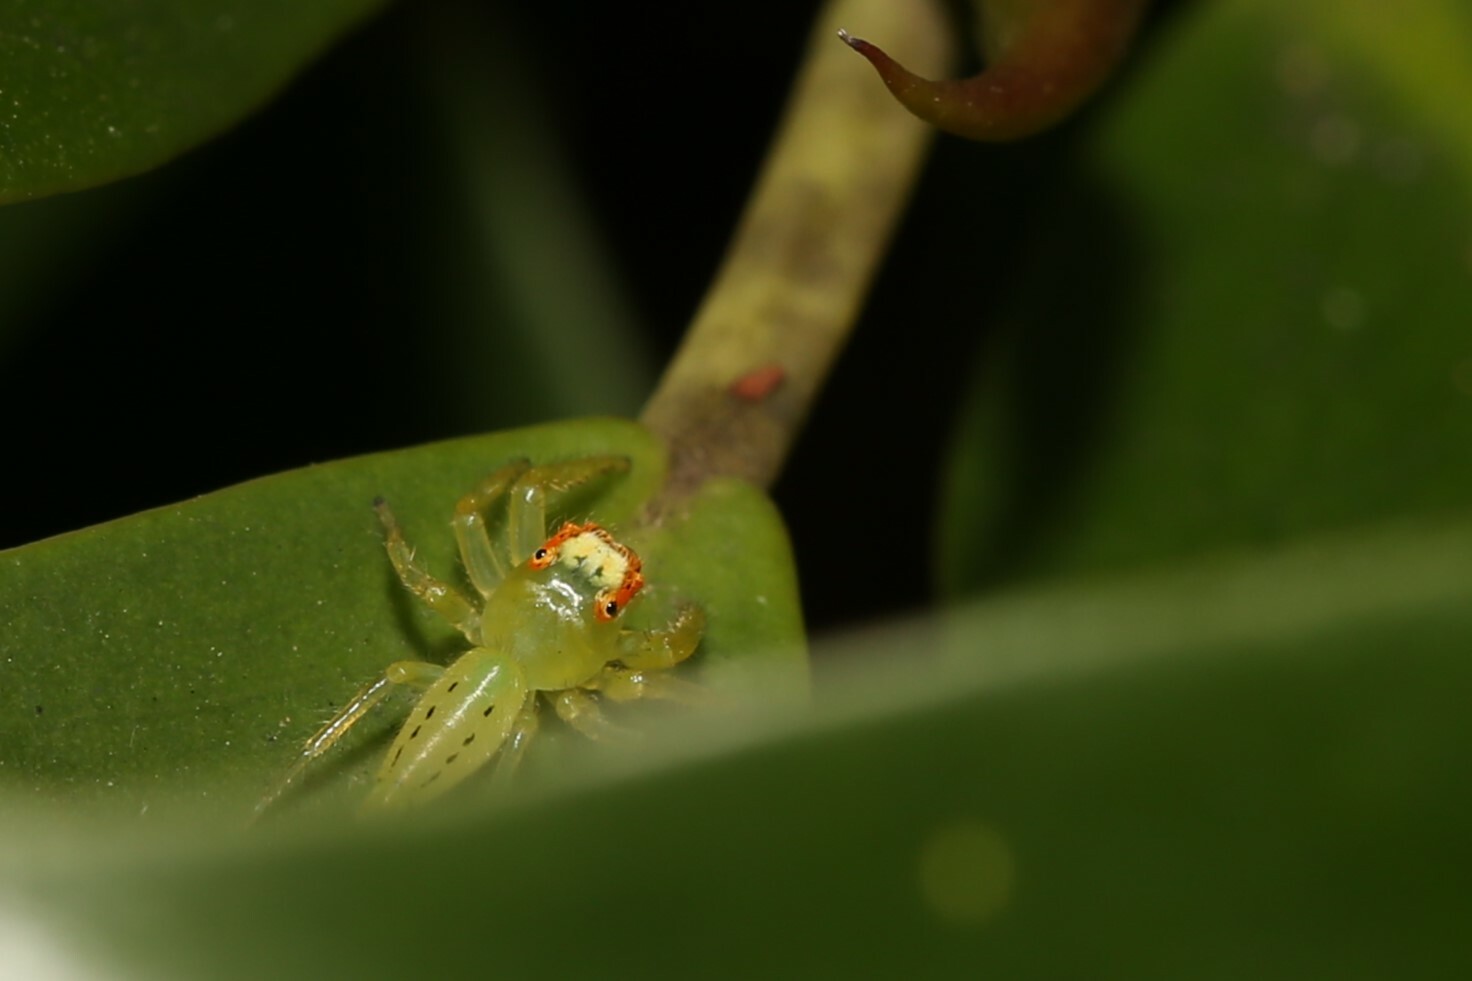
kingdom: Animalia
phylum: Arthropoda
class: Arachnida
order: Araneae
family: Salticidae
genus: Mopsus
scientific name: Mopsus mormon
